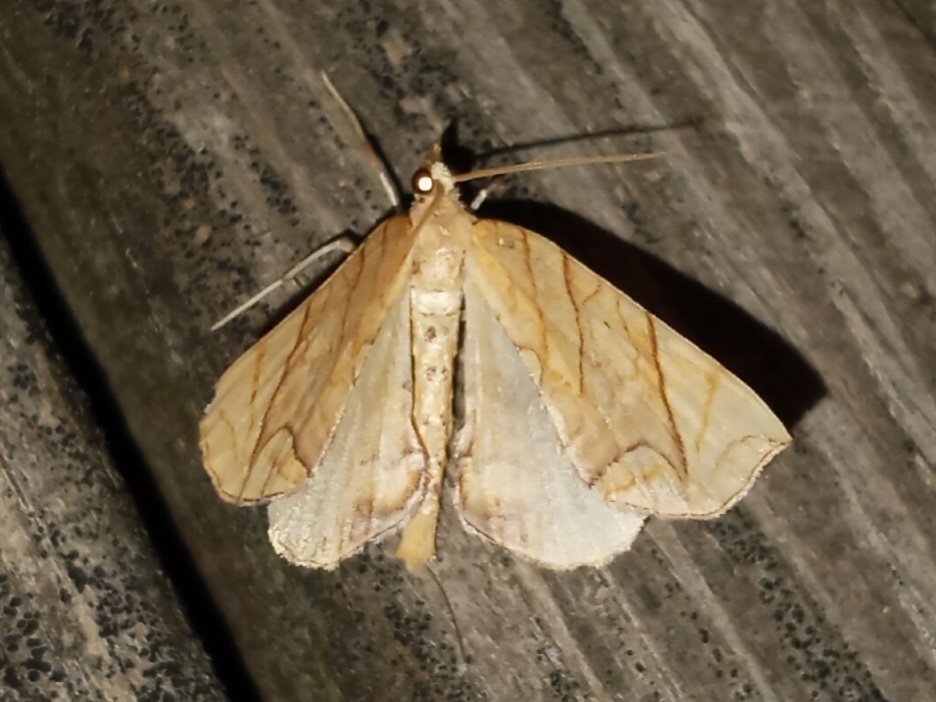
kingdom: Animalia
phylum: Arthropoda
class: Insecta
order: Lepidoptera
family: Geometridae
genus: Eulithis
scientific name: Eulithis
